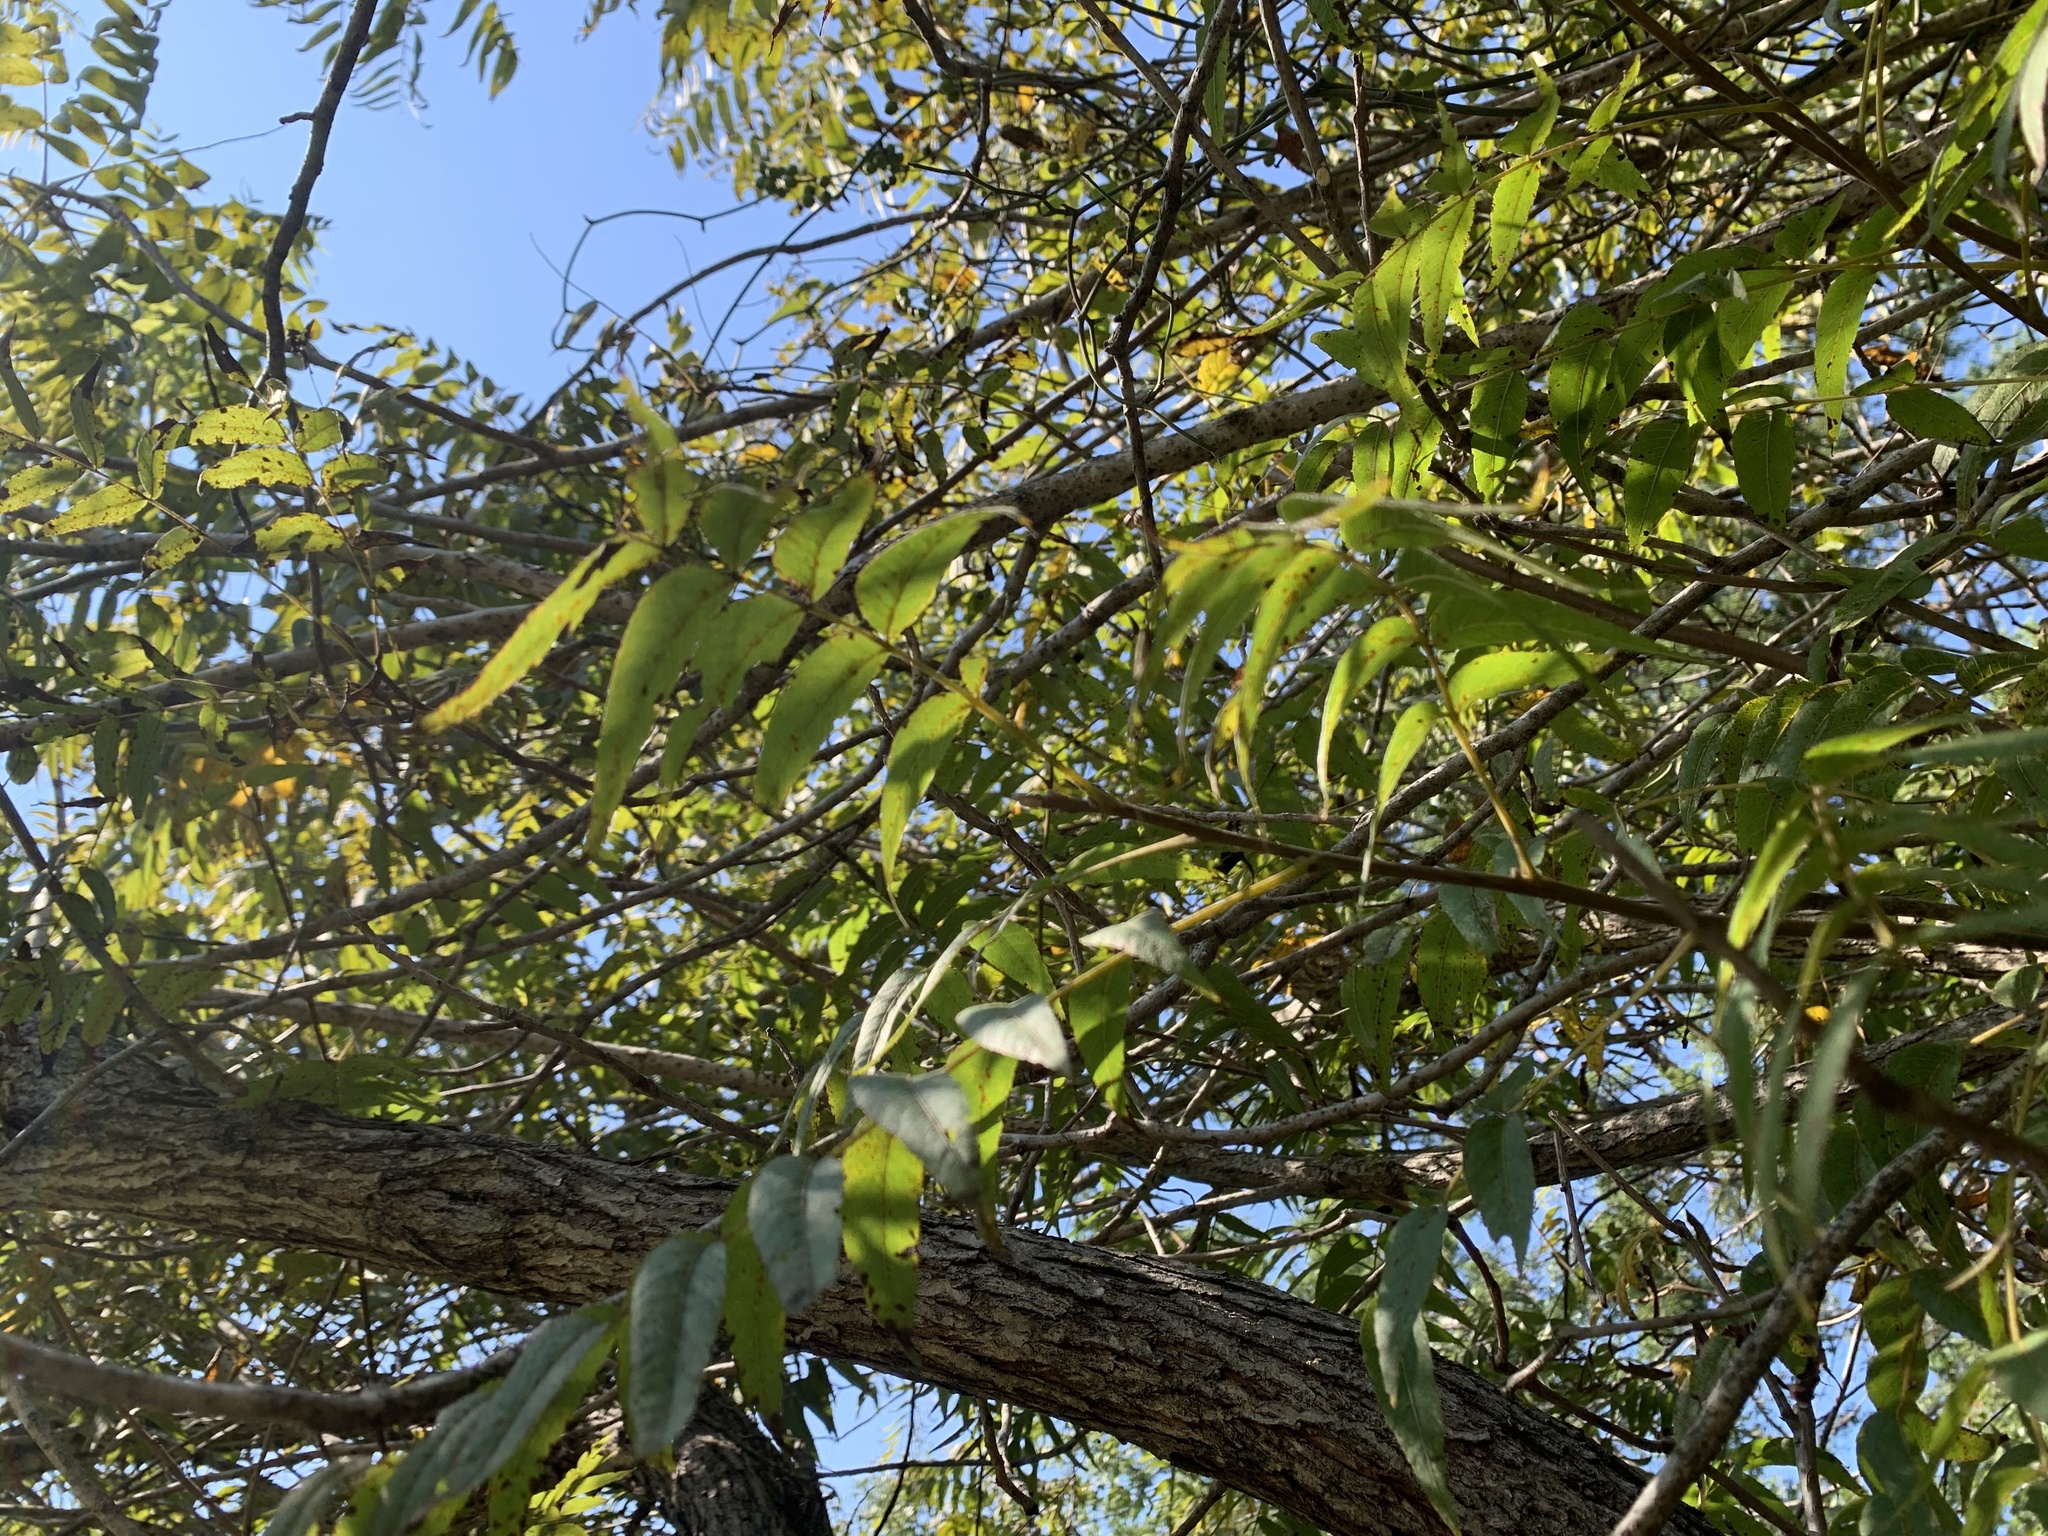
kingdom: Plantae
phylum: Tracheophyta
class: Magnoliopsida
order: Fagales
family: Juglandaceae
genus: Juglans
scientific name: Juglans microcarpa
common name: Texas walnut
